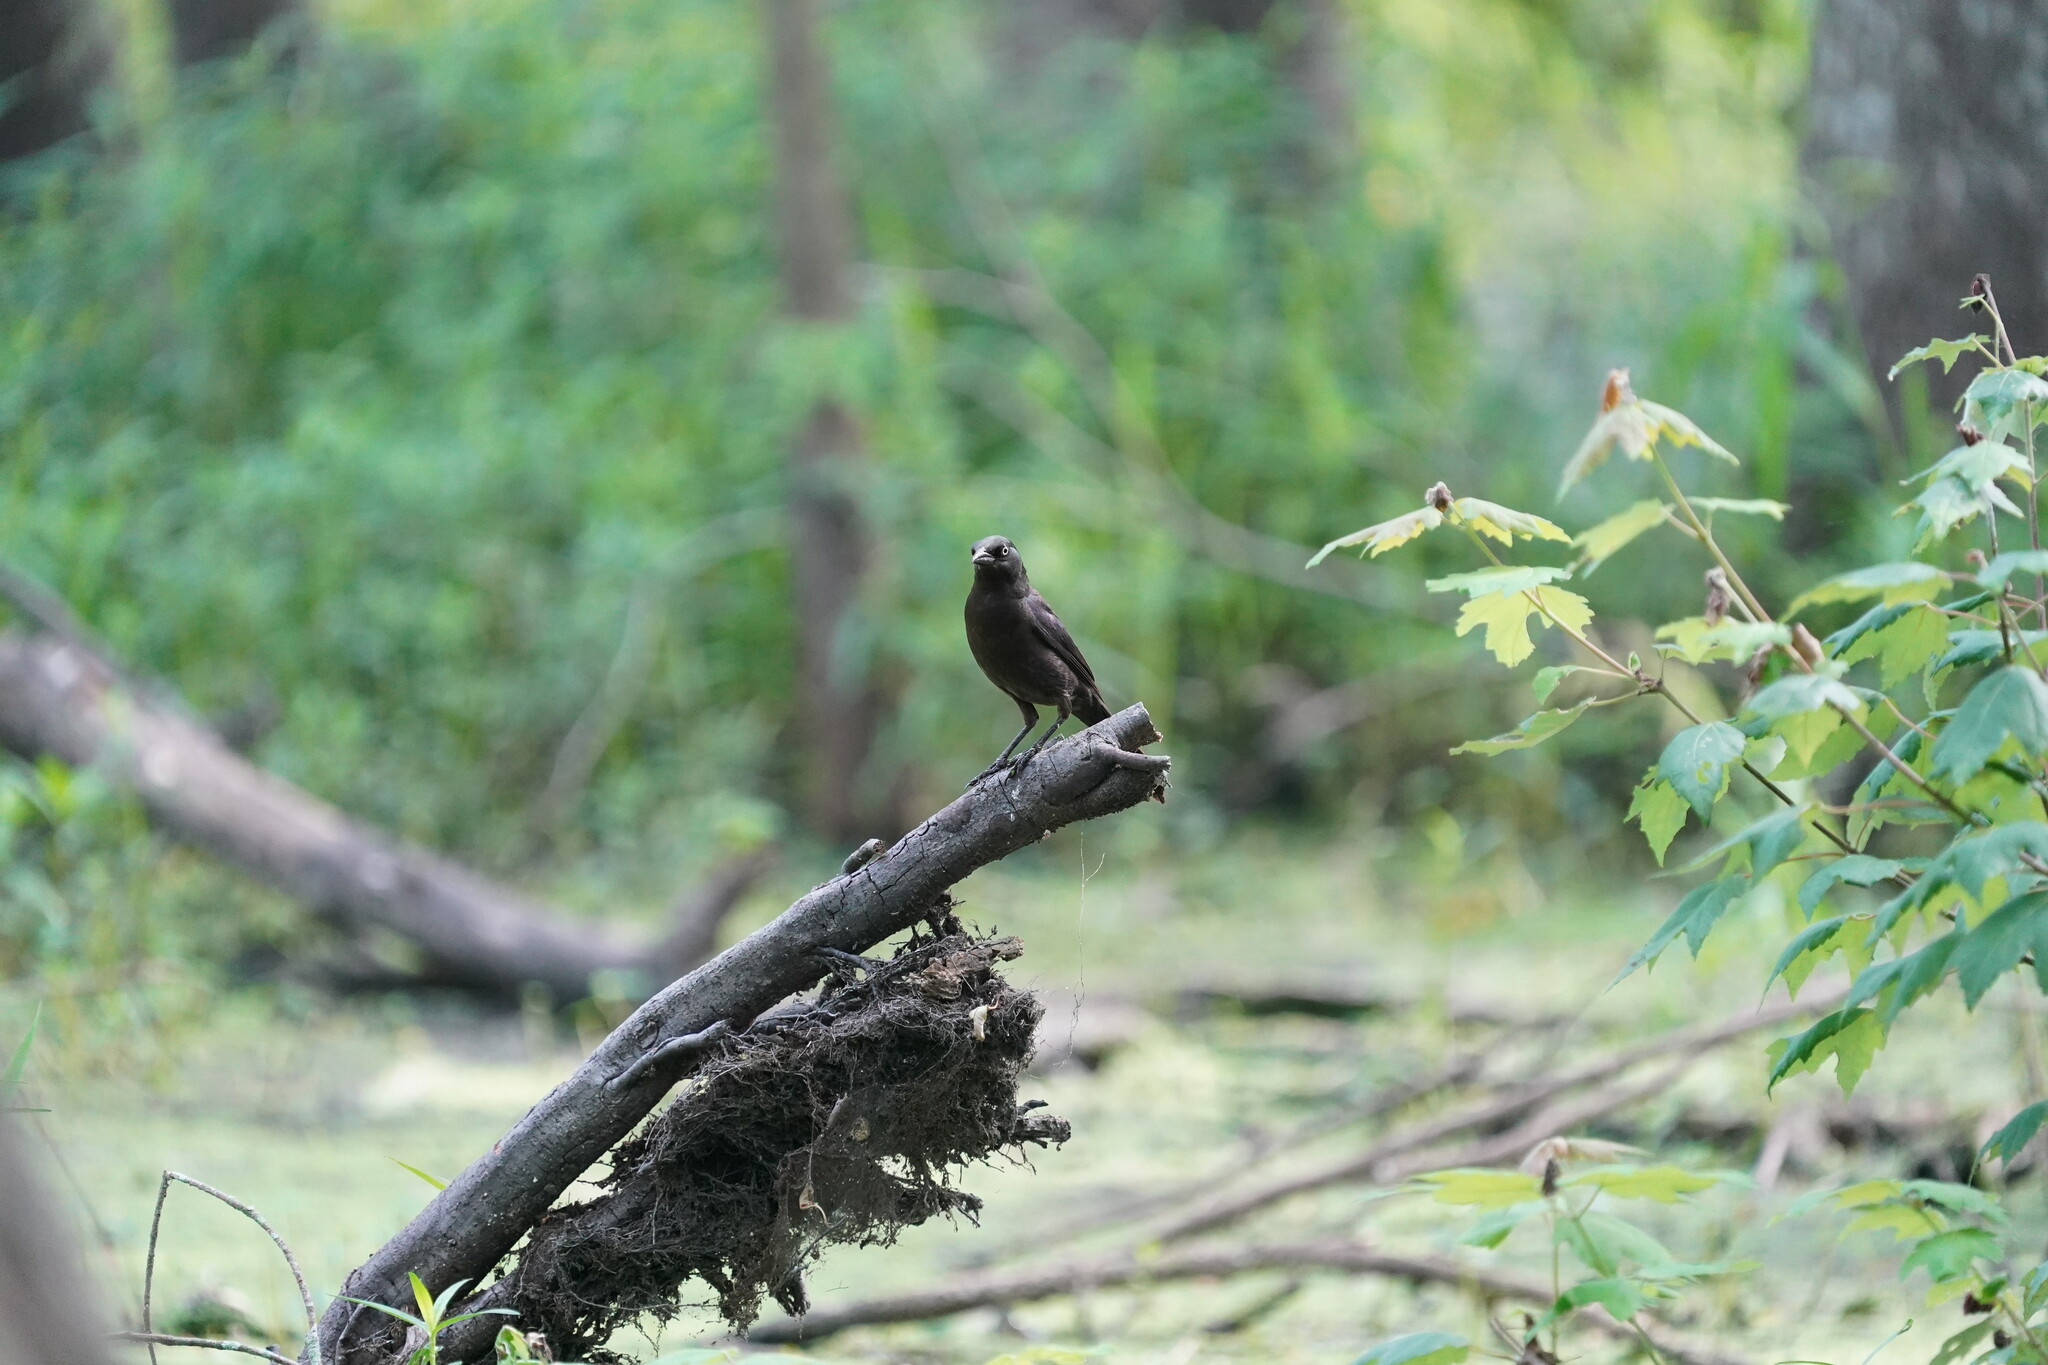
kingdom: Animalia
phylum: Chordata
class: Aves
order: Passeriformes
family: Icteridae
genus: Quiscalus
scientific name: Quiscalus quiscula
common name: Common grackle
